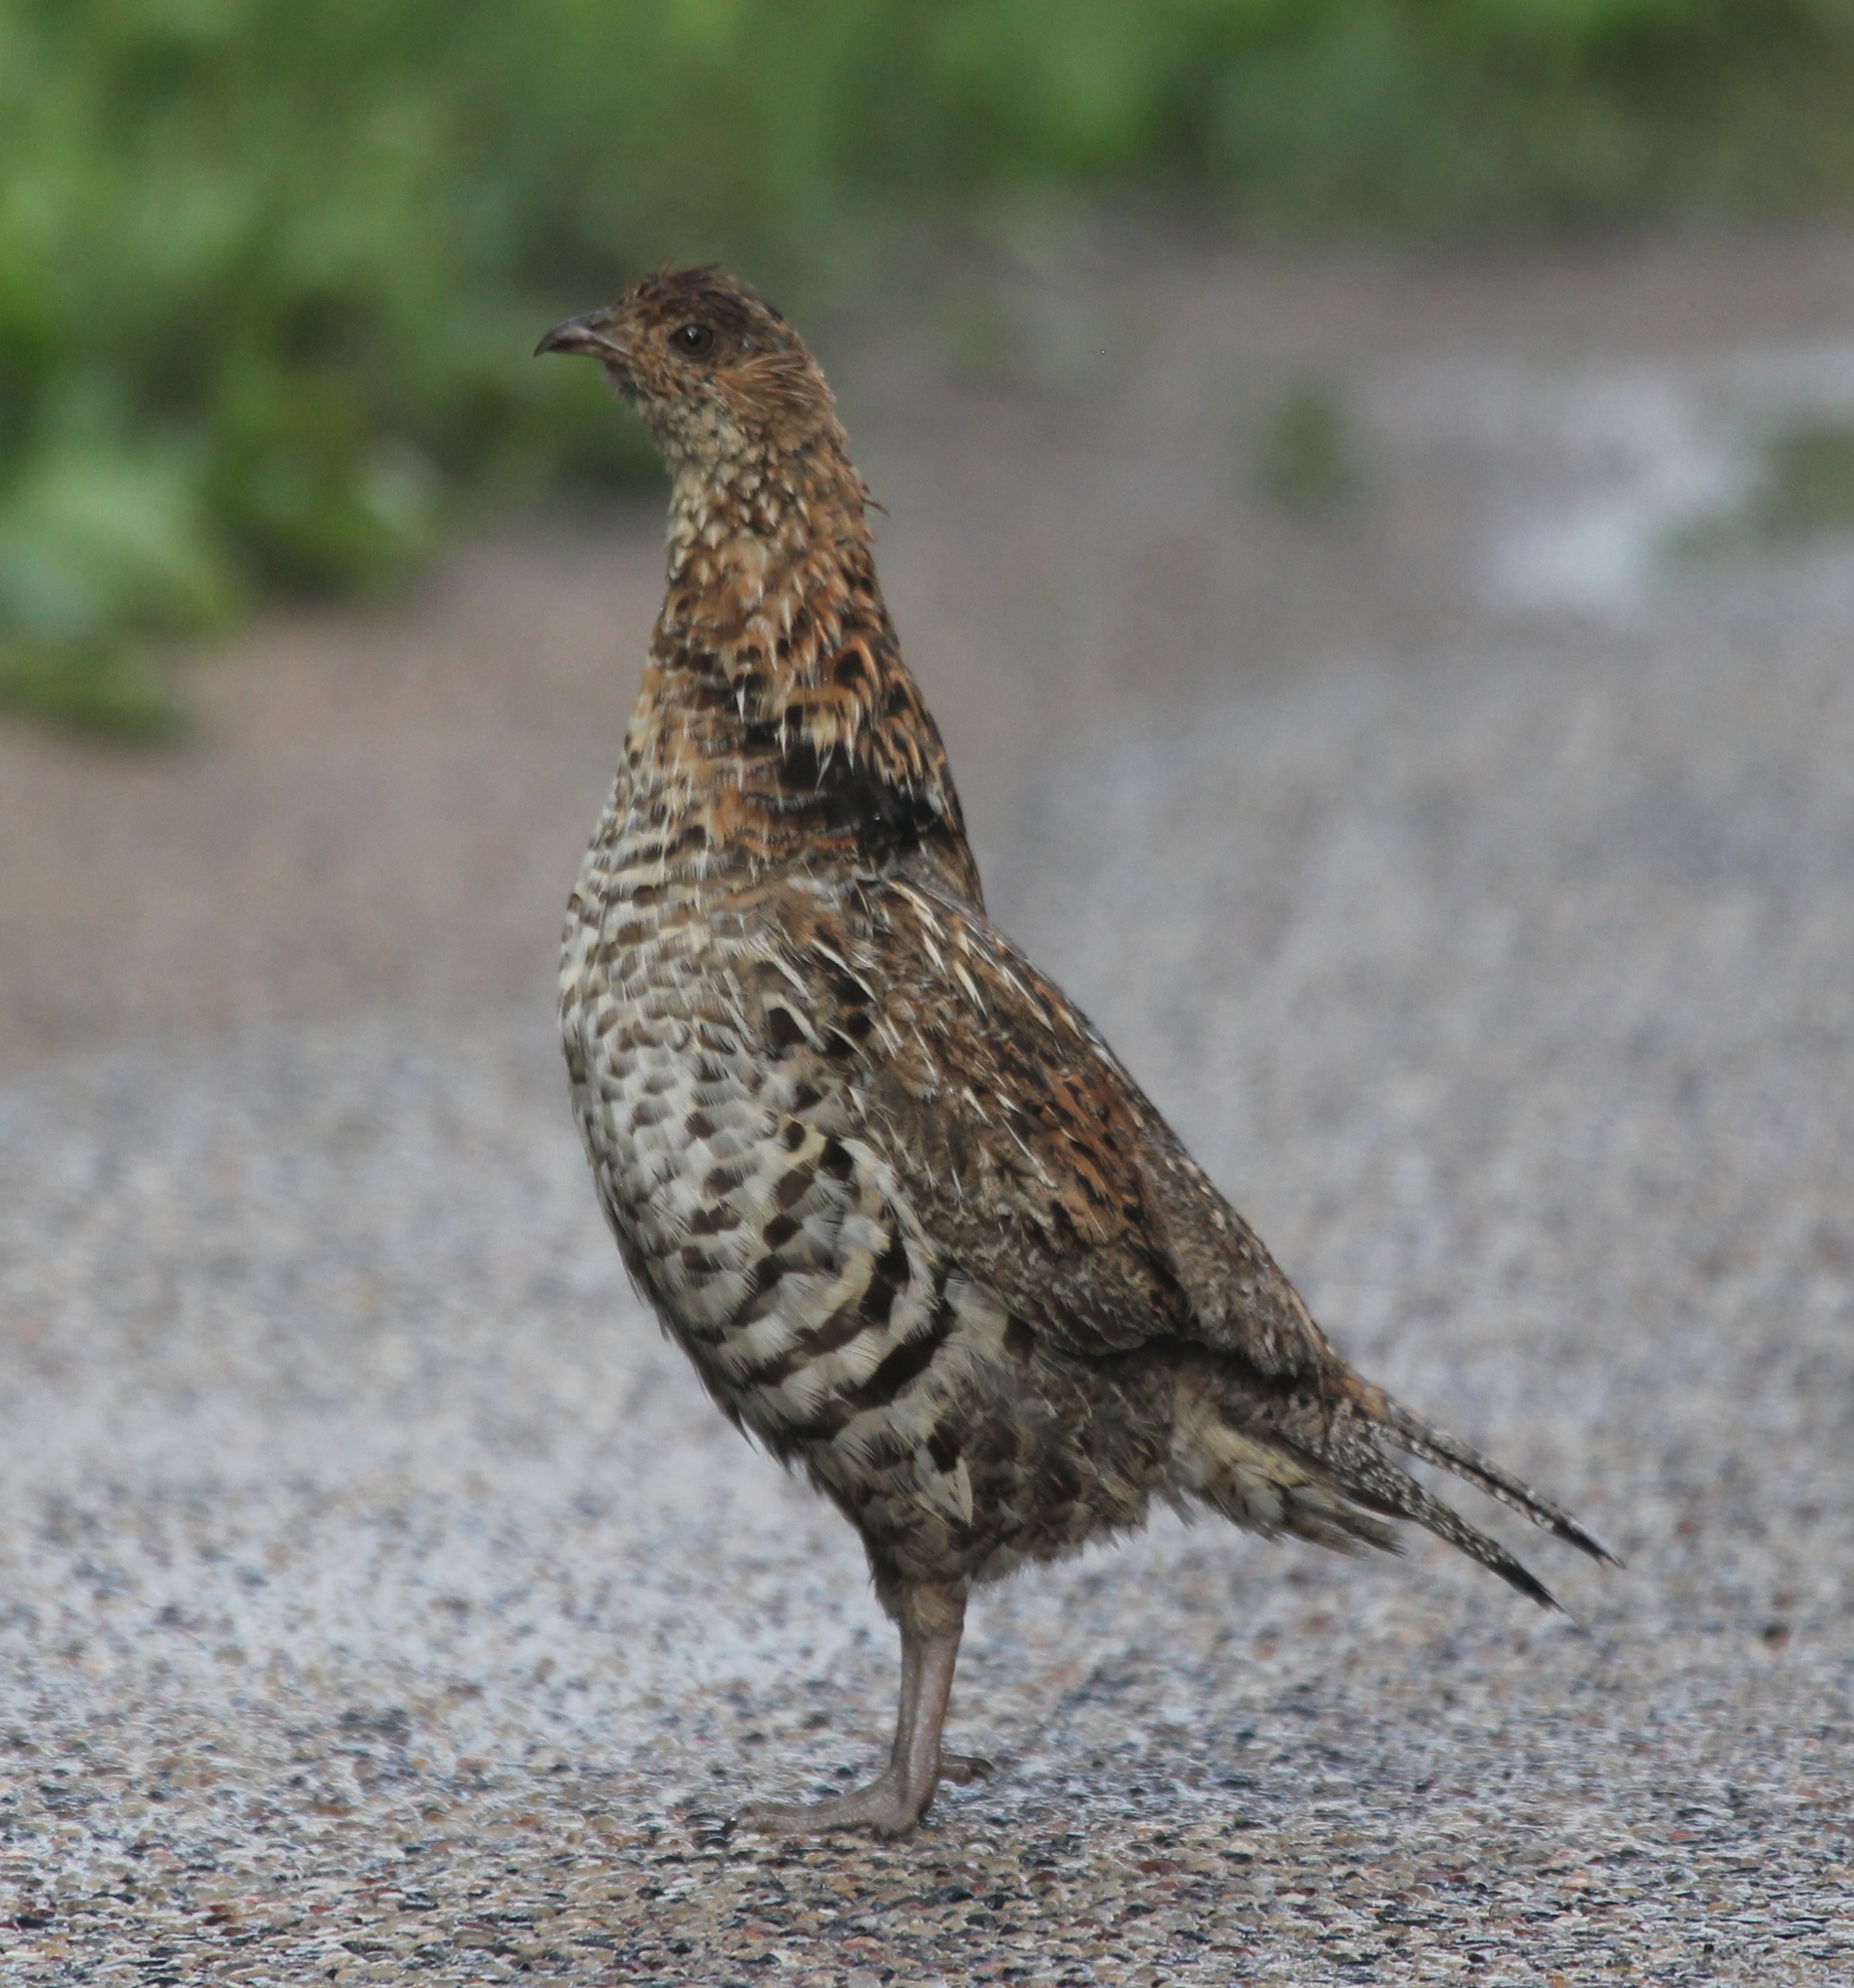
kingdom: Animalia
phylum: Chordata
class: Aves
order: Galliformes
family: Phasianidae
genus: Bonasa
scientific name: Bonasa umbellus
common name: Ruffed grouse
